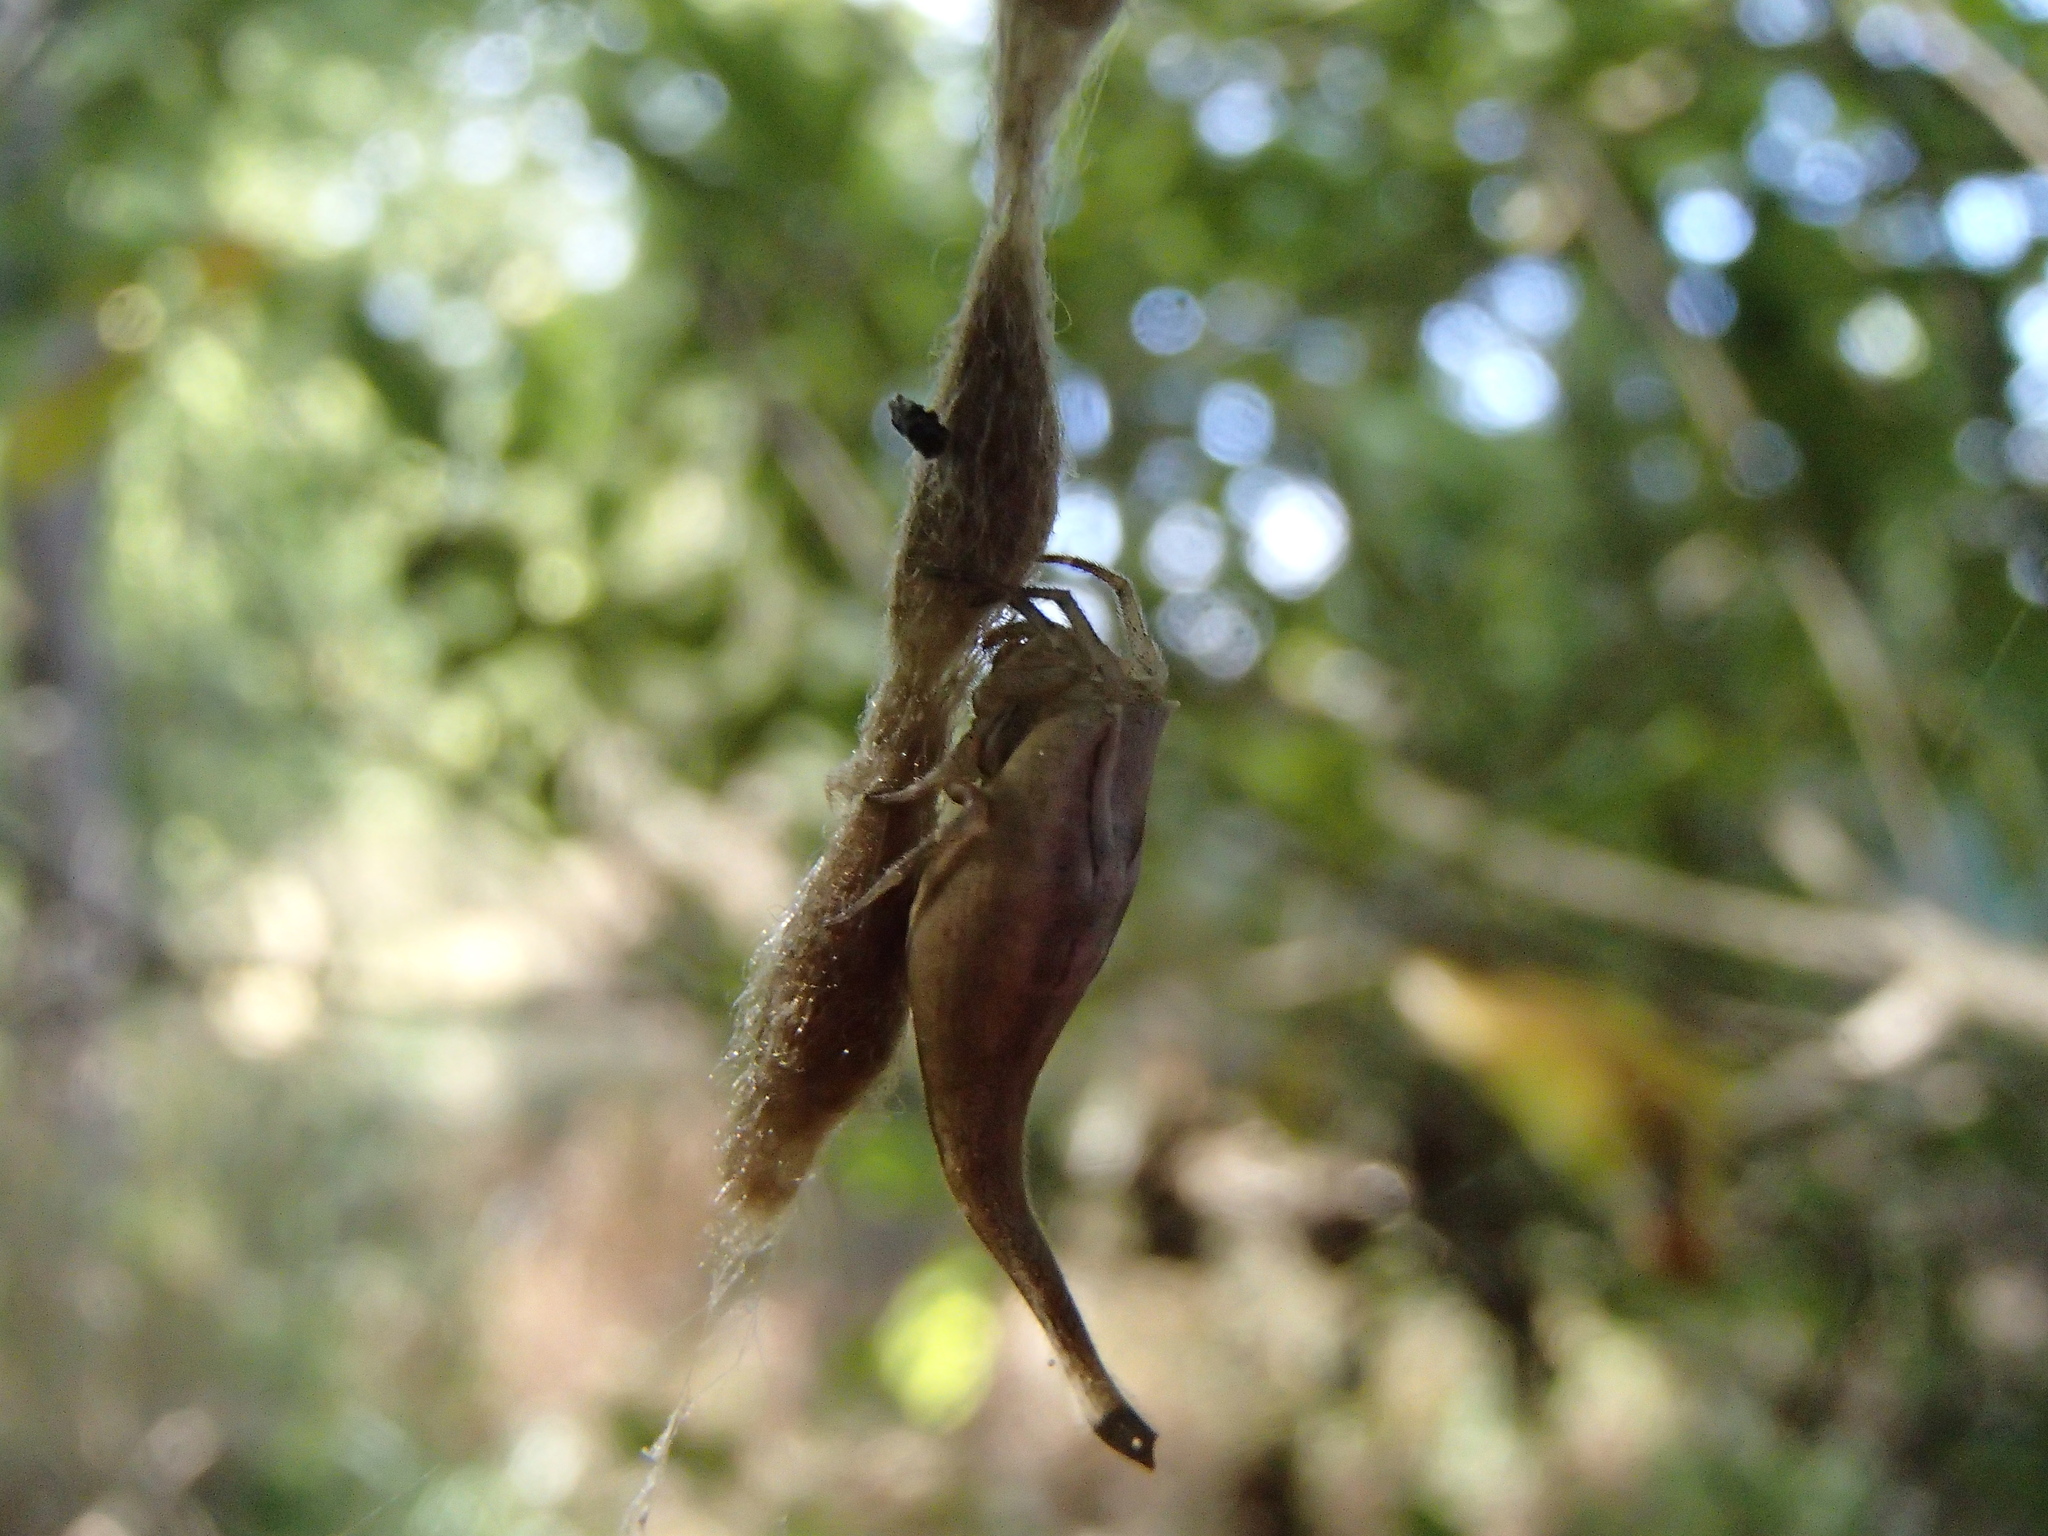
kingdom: Animalia
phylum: Arthropoda
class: Arachnida
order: Araneae
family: Araneidae
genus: Arachnura
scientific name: Arachnura feredayi
